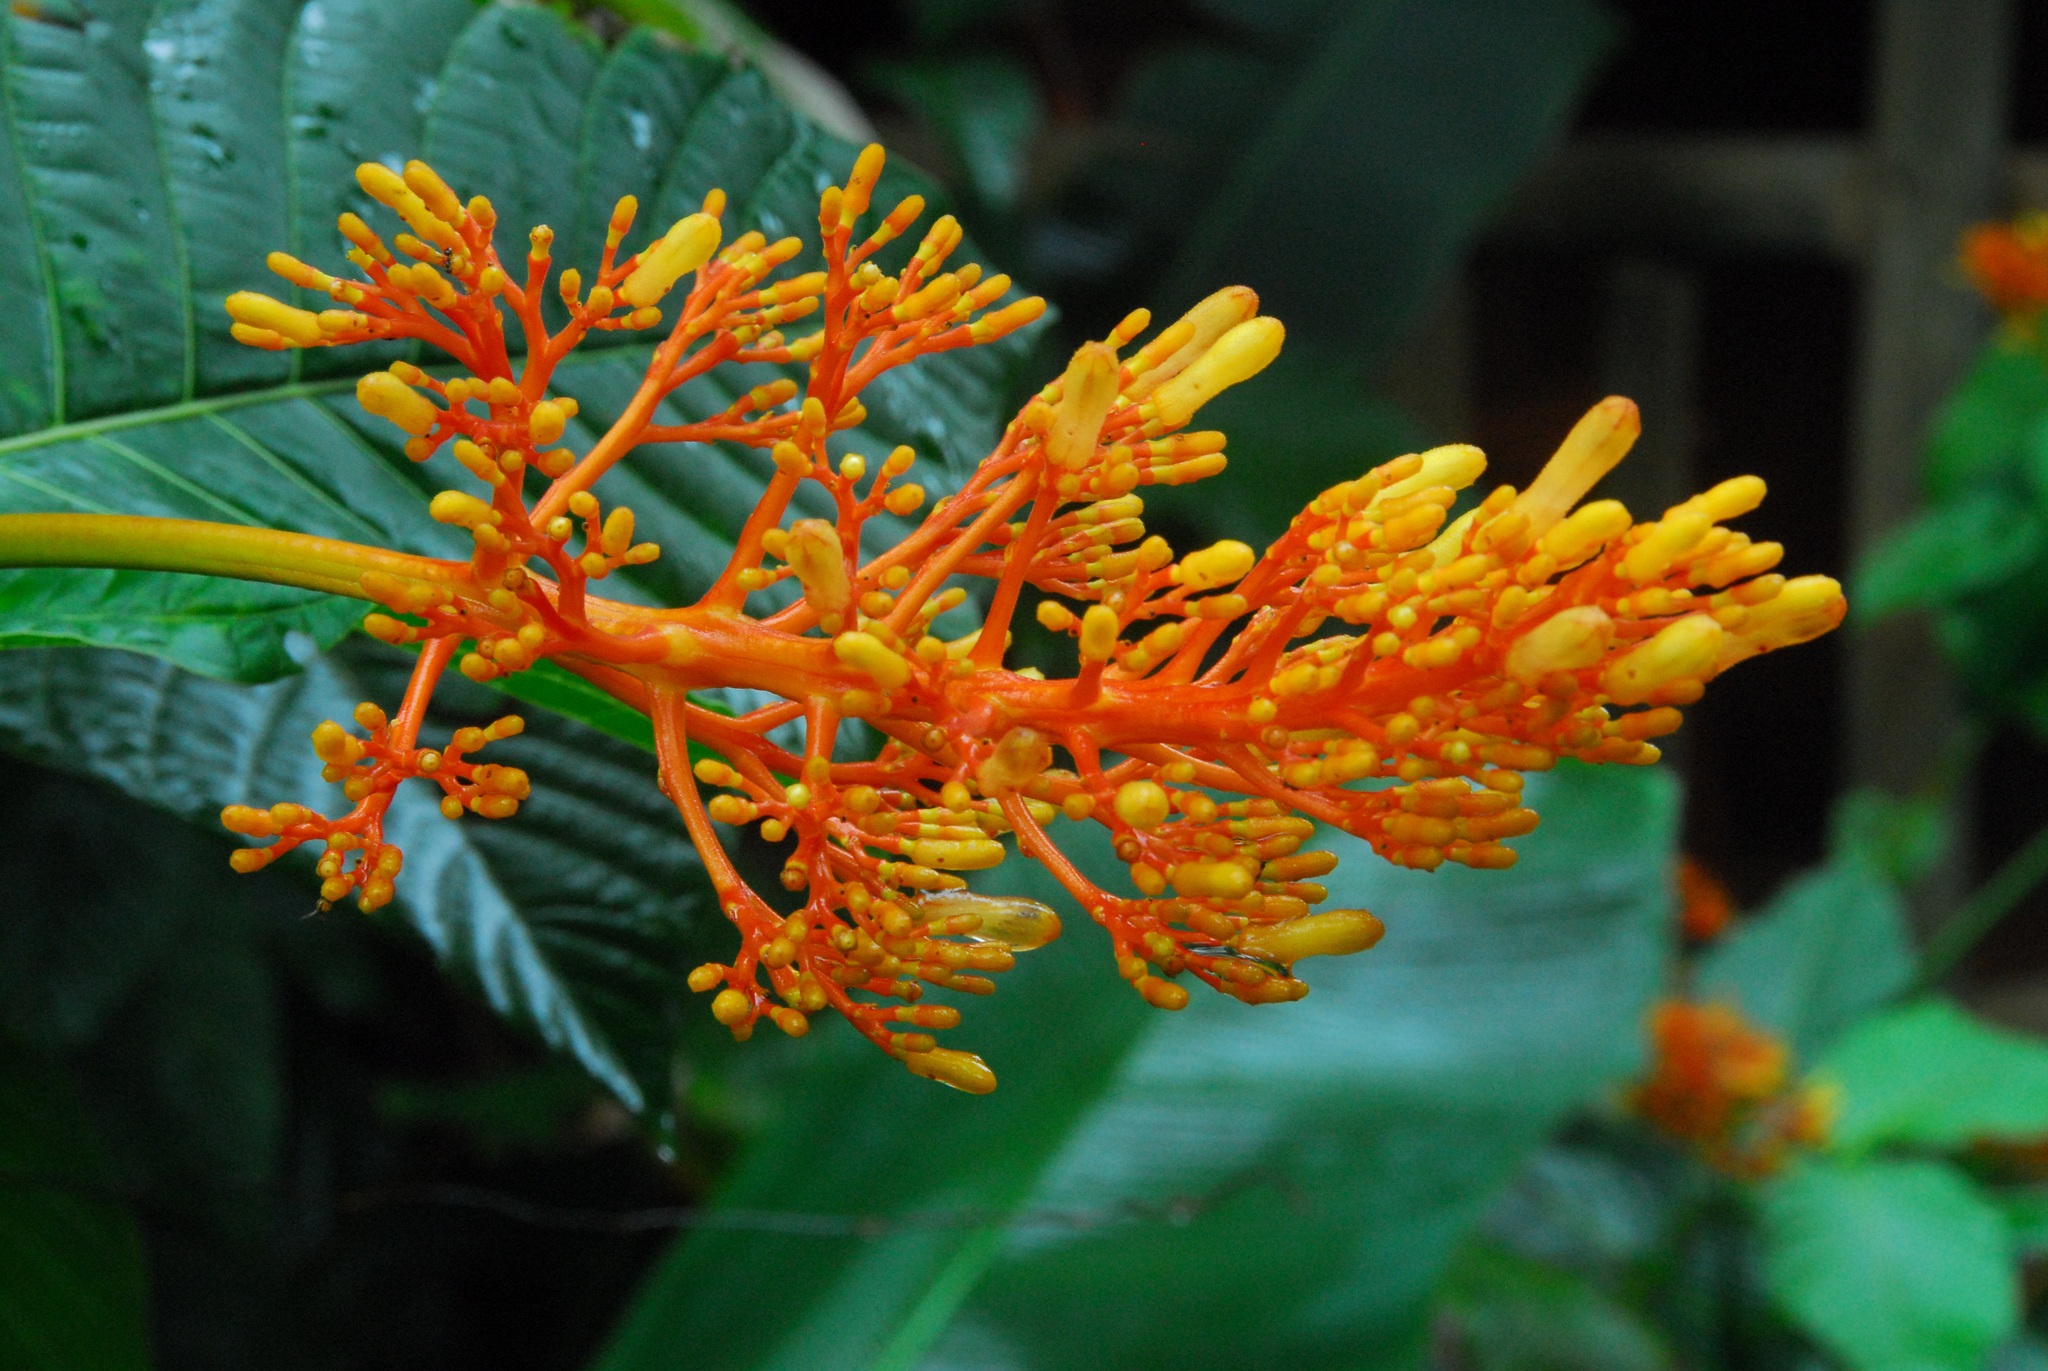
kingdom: Plantae
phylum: Tracheophyta
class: Magnoliopsida
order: Gentianales
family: Rubiaceae
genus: Palicourea
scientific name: Palicourea guianensis
